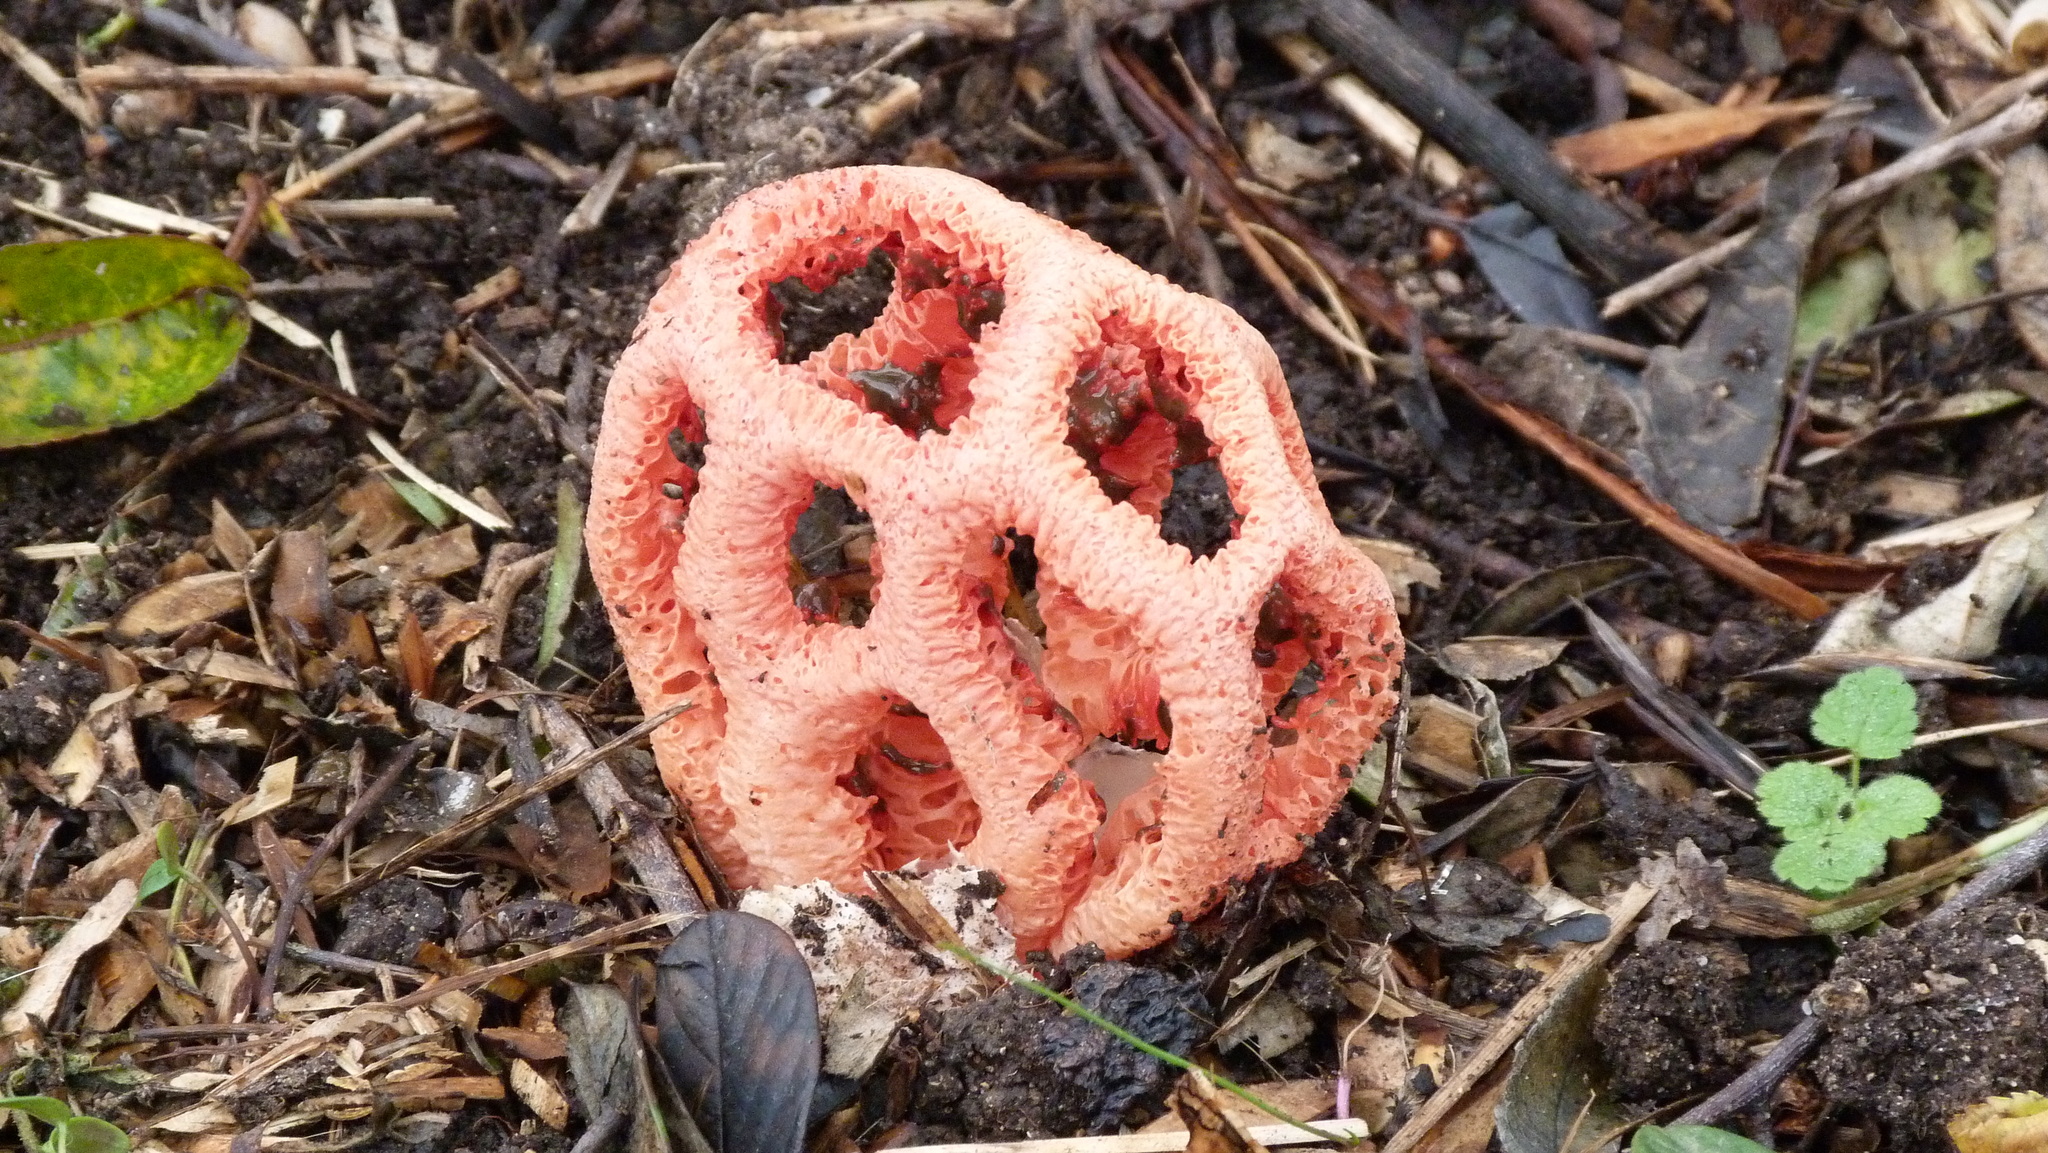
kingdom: Fungi
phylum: Basidiomycota
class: Agaricomycetes
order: Phallales
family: Phallaceae
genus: Clathrus
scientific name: Clathrus ruber
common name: Red cage
